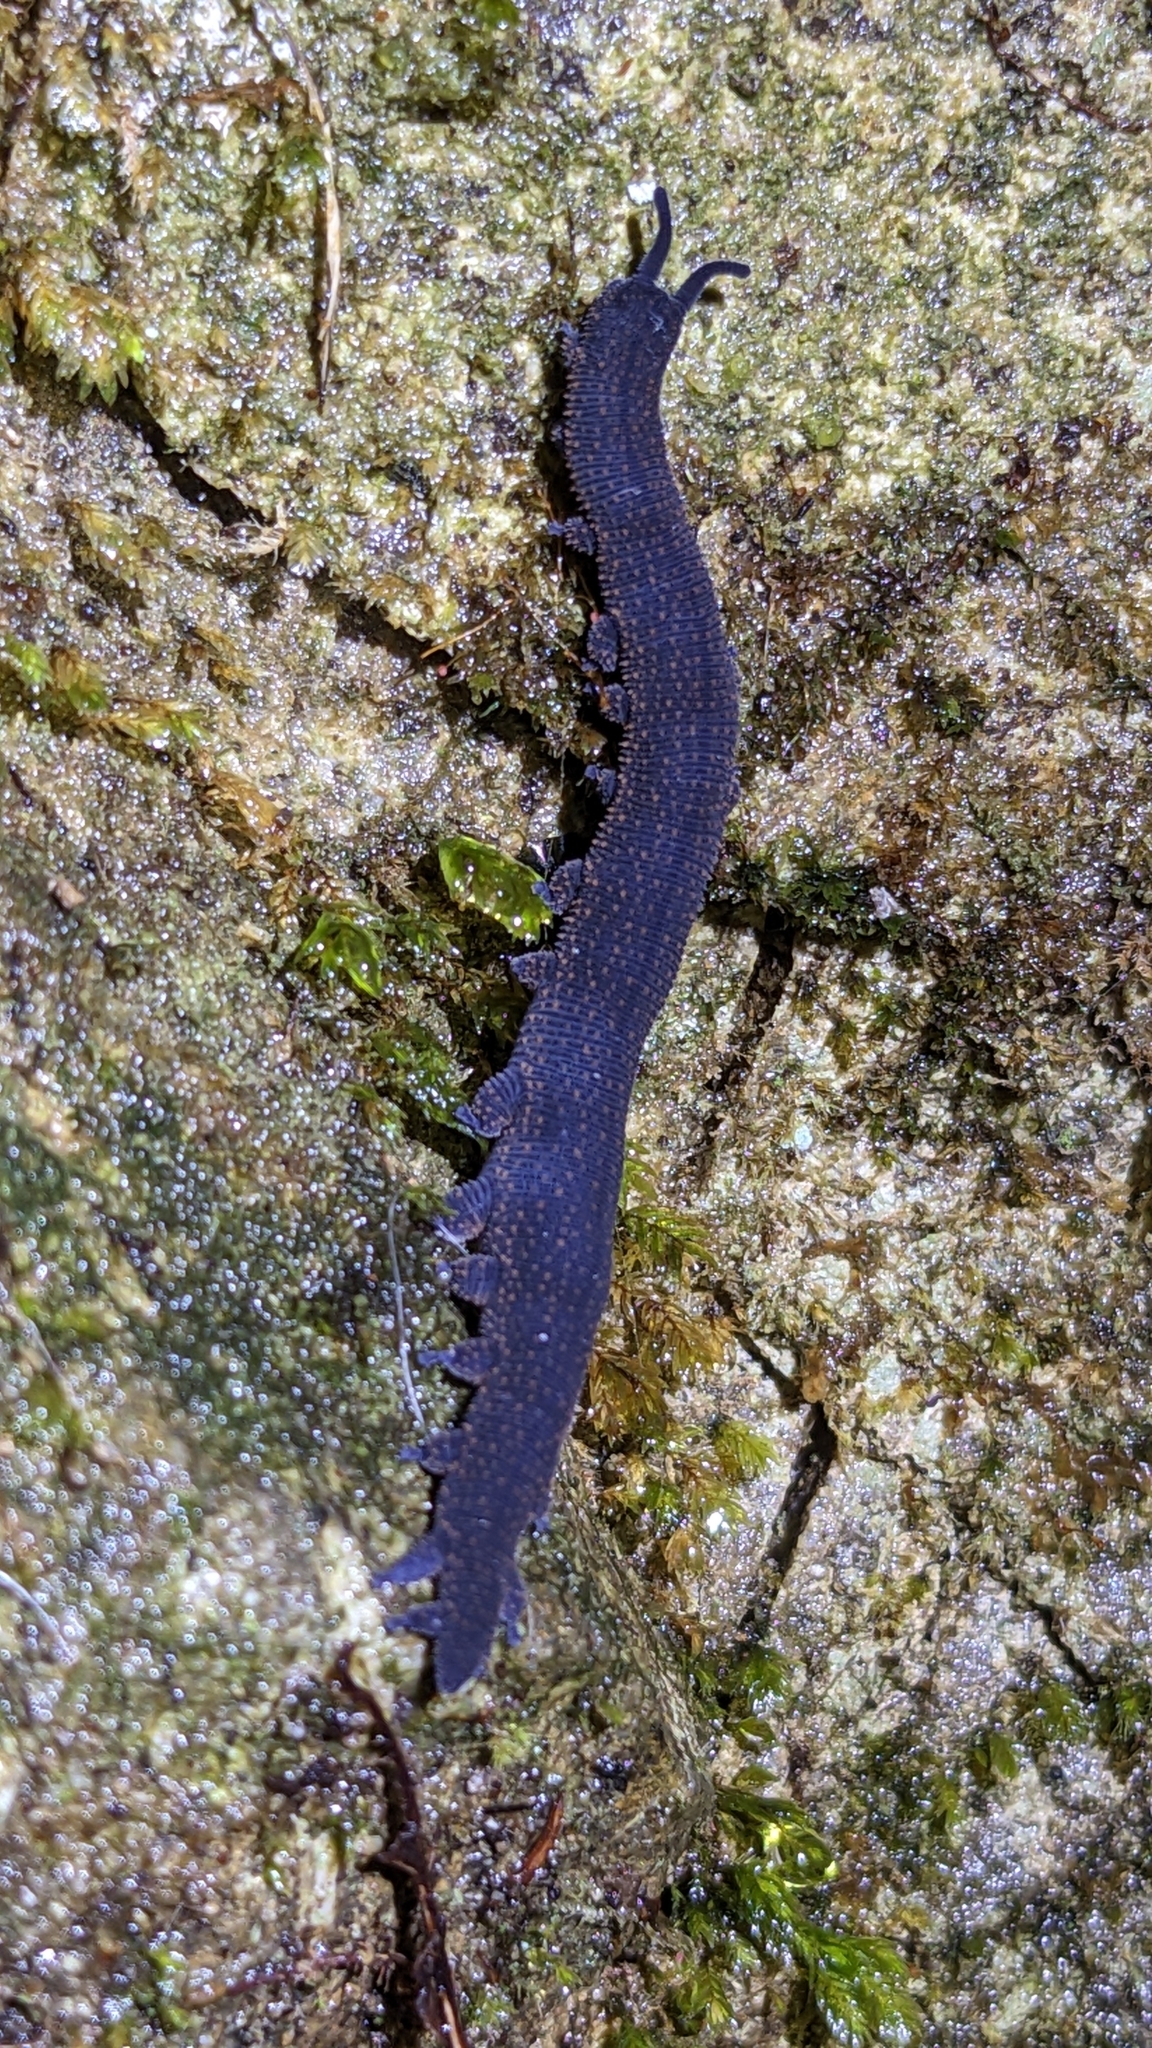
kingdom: Animalia
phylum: Onychophora
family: Peripatopsidae
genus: Peripatoides
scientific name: Peripatoides novaezealandiae
